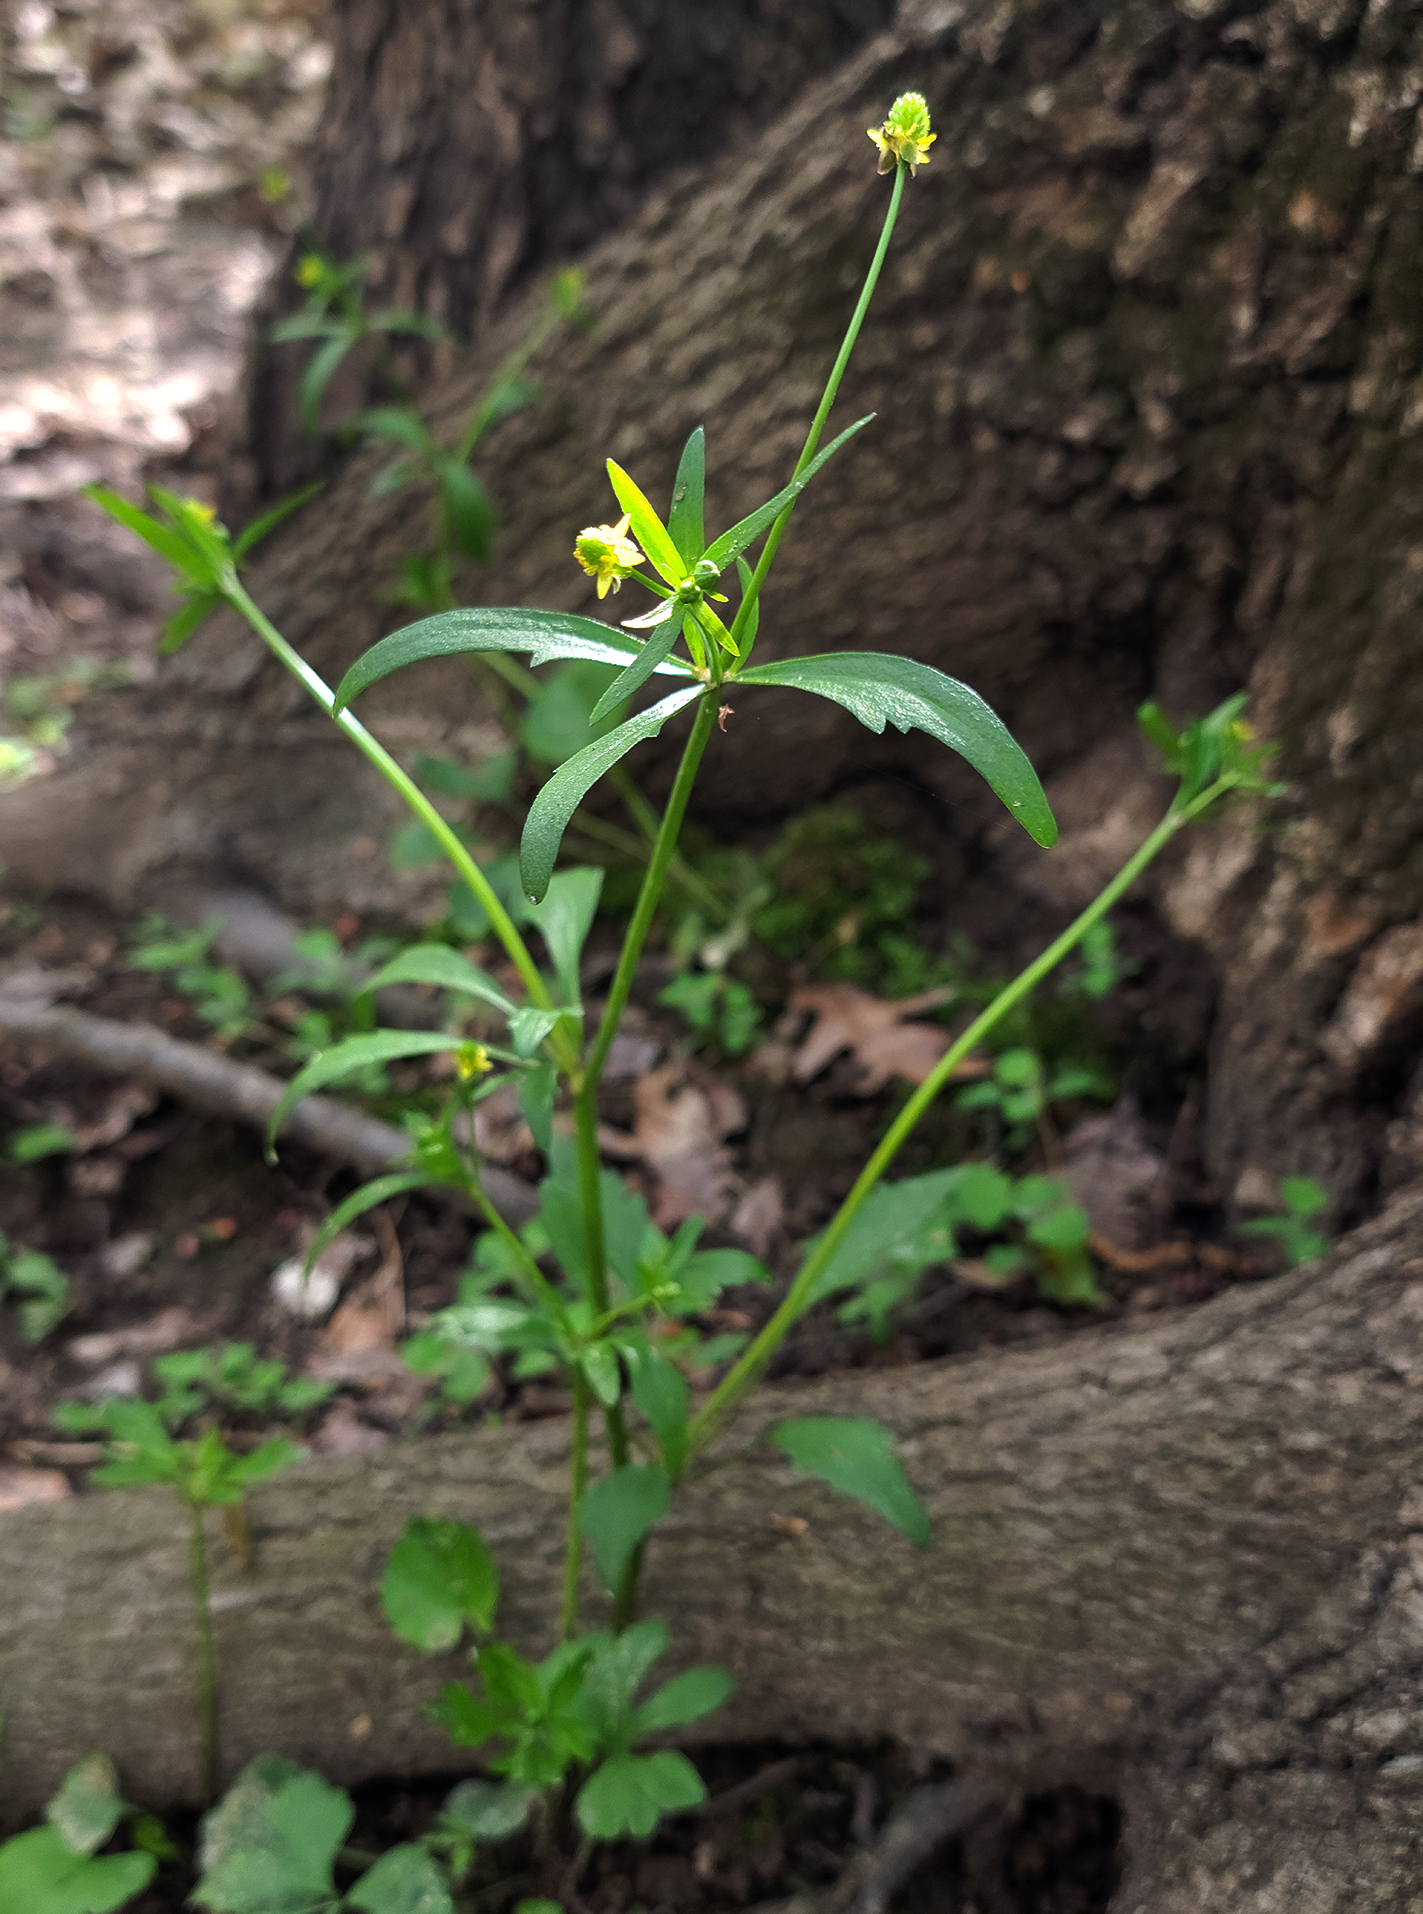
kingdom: Plantae
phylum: Tracheophyta
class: Magnoliopsida
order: Ranunculales
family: Ranunculaceae
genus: Ranunculus
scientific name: Ranunculus abortivus
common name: Early wood buttercup
